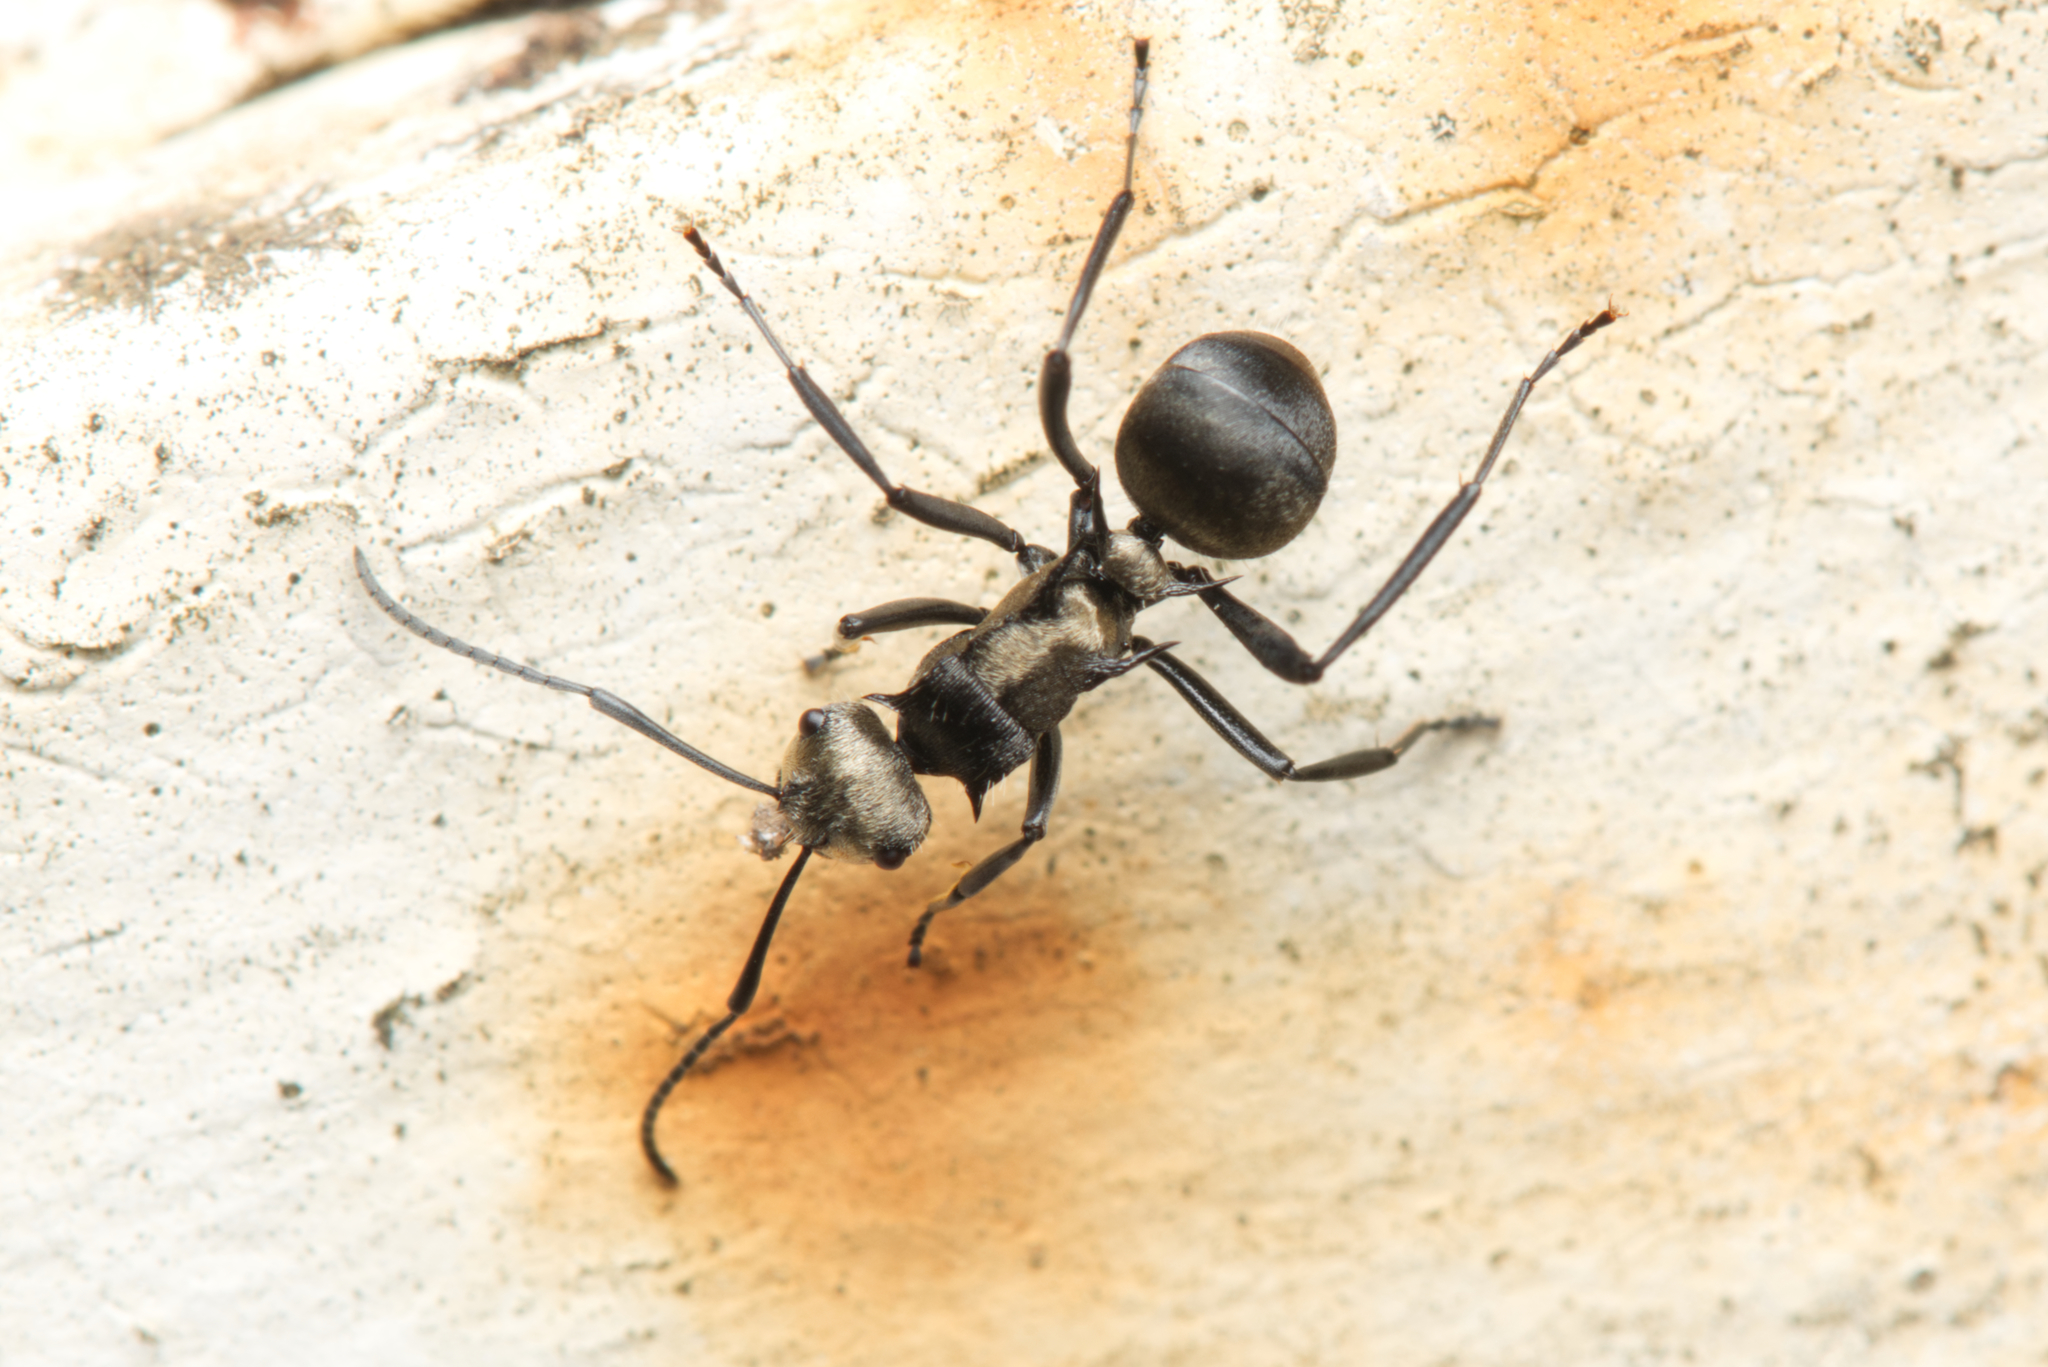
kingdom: Animalia
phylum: Arthropoda
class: Insecta
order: Hymenoptera
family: Formicidae
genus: Polyrhachis
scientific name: Polyrhachis daemeli
